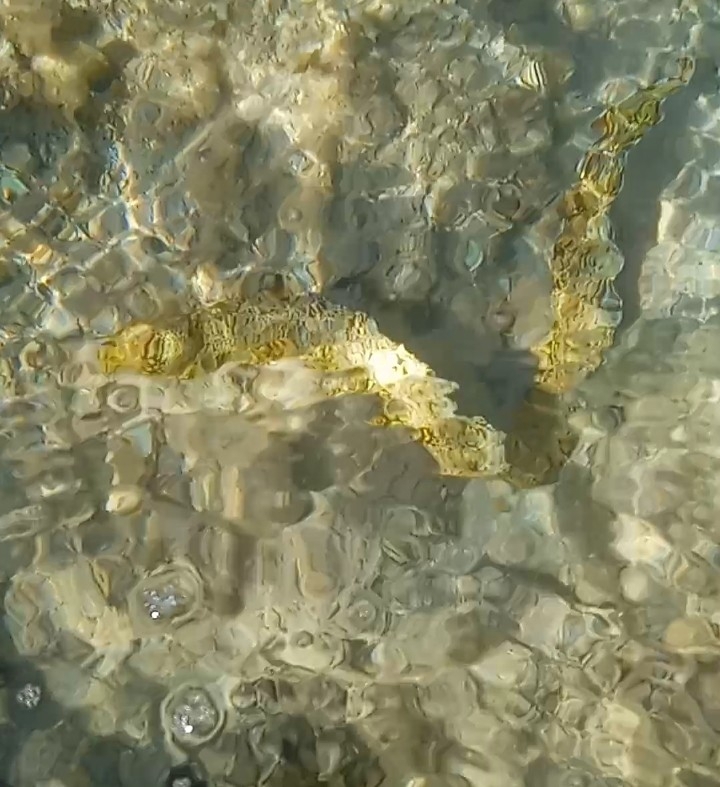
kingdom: Animalia
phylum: Chordata
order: Anguilliformes
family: Muraenidae
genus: Echidna
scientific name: Echidna nebulosa
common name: Snowflake moray
